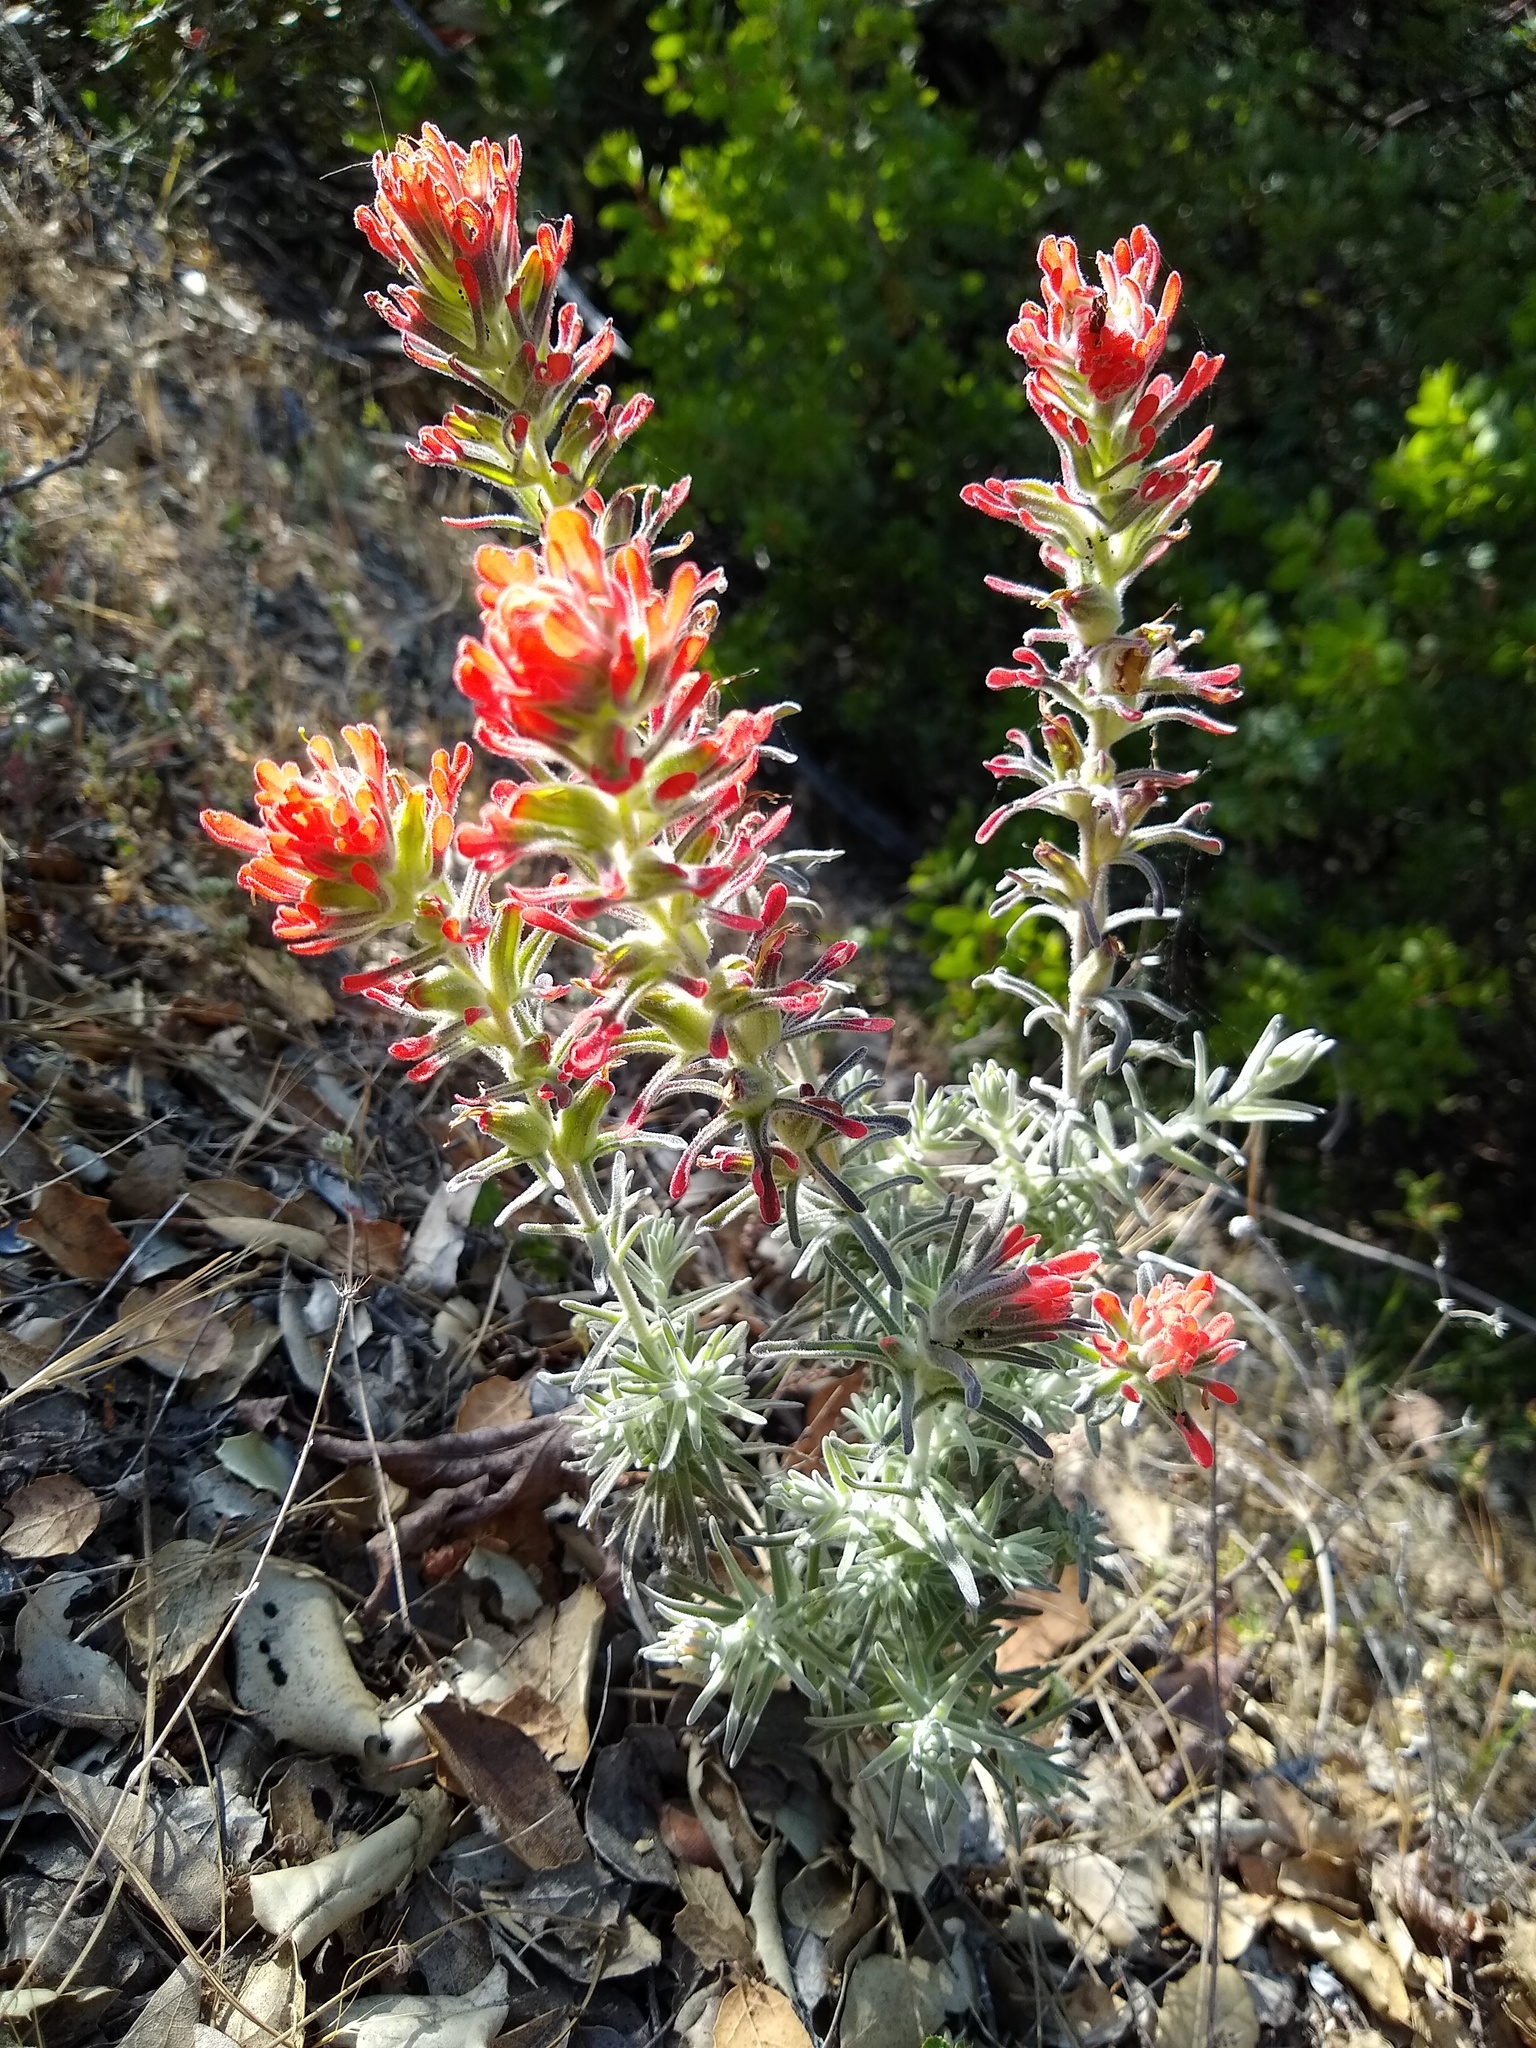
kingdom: Plantae
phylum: Tracheophyta
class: Magnoliopsida
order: Lamiales
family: Orobanchaceae
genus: Castilleja
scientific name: Castilleja foliolosa
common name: Woolly indian paintbrush
